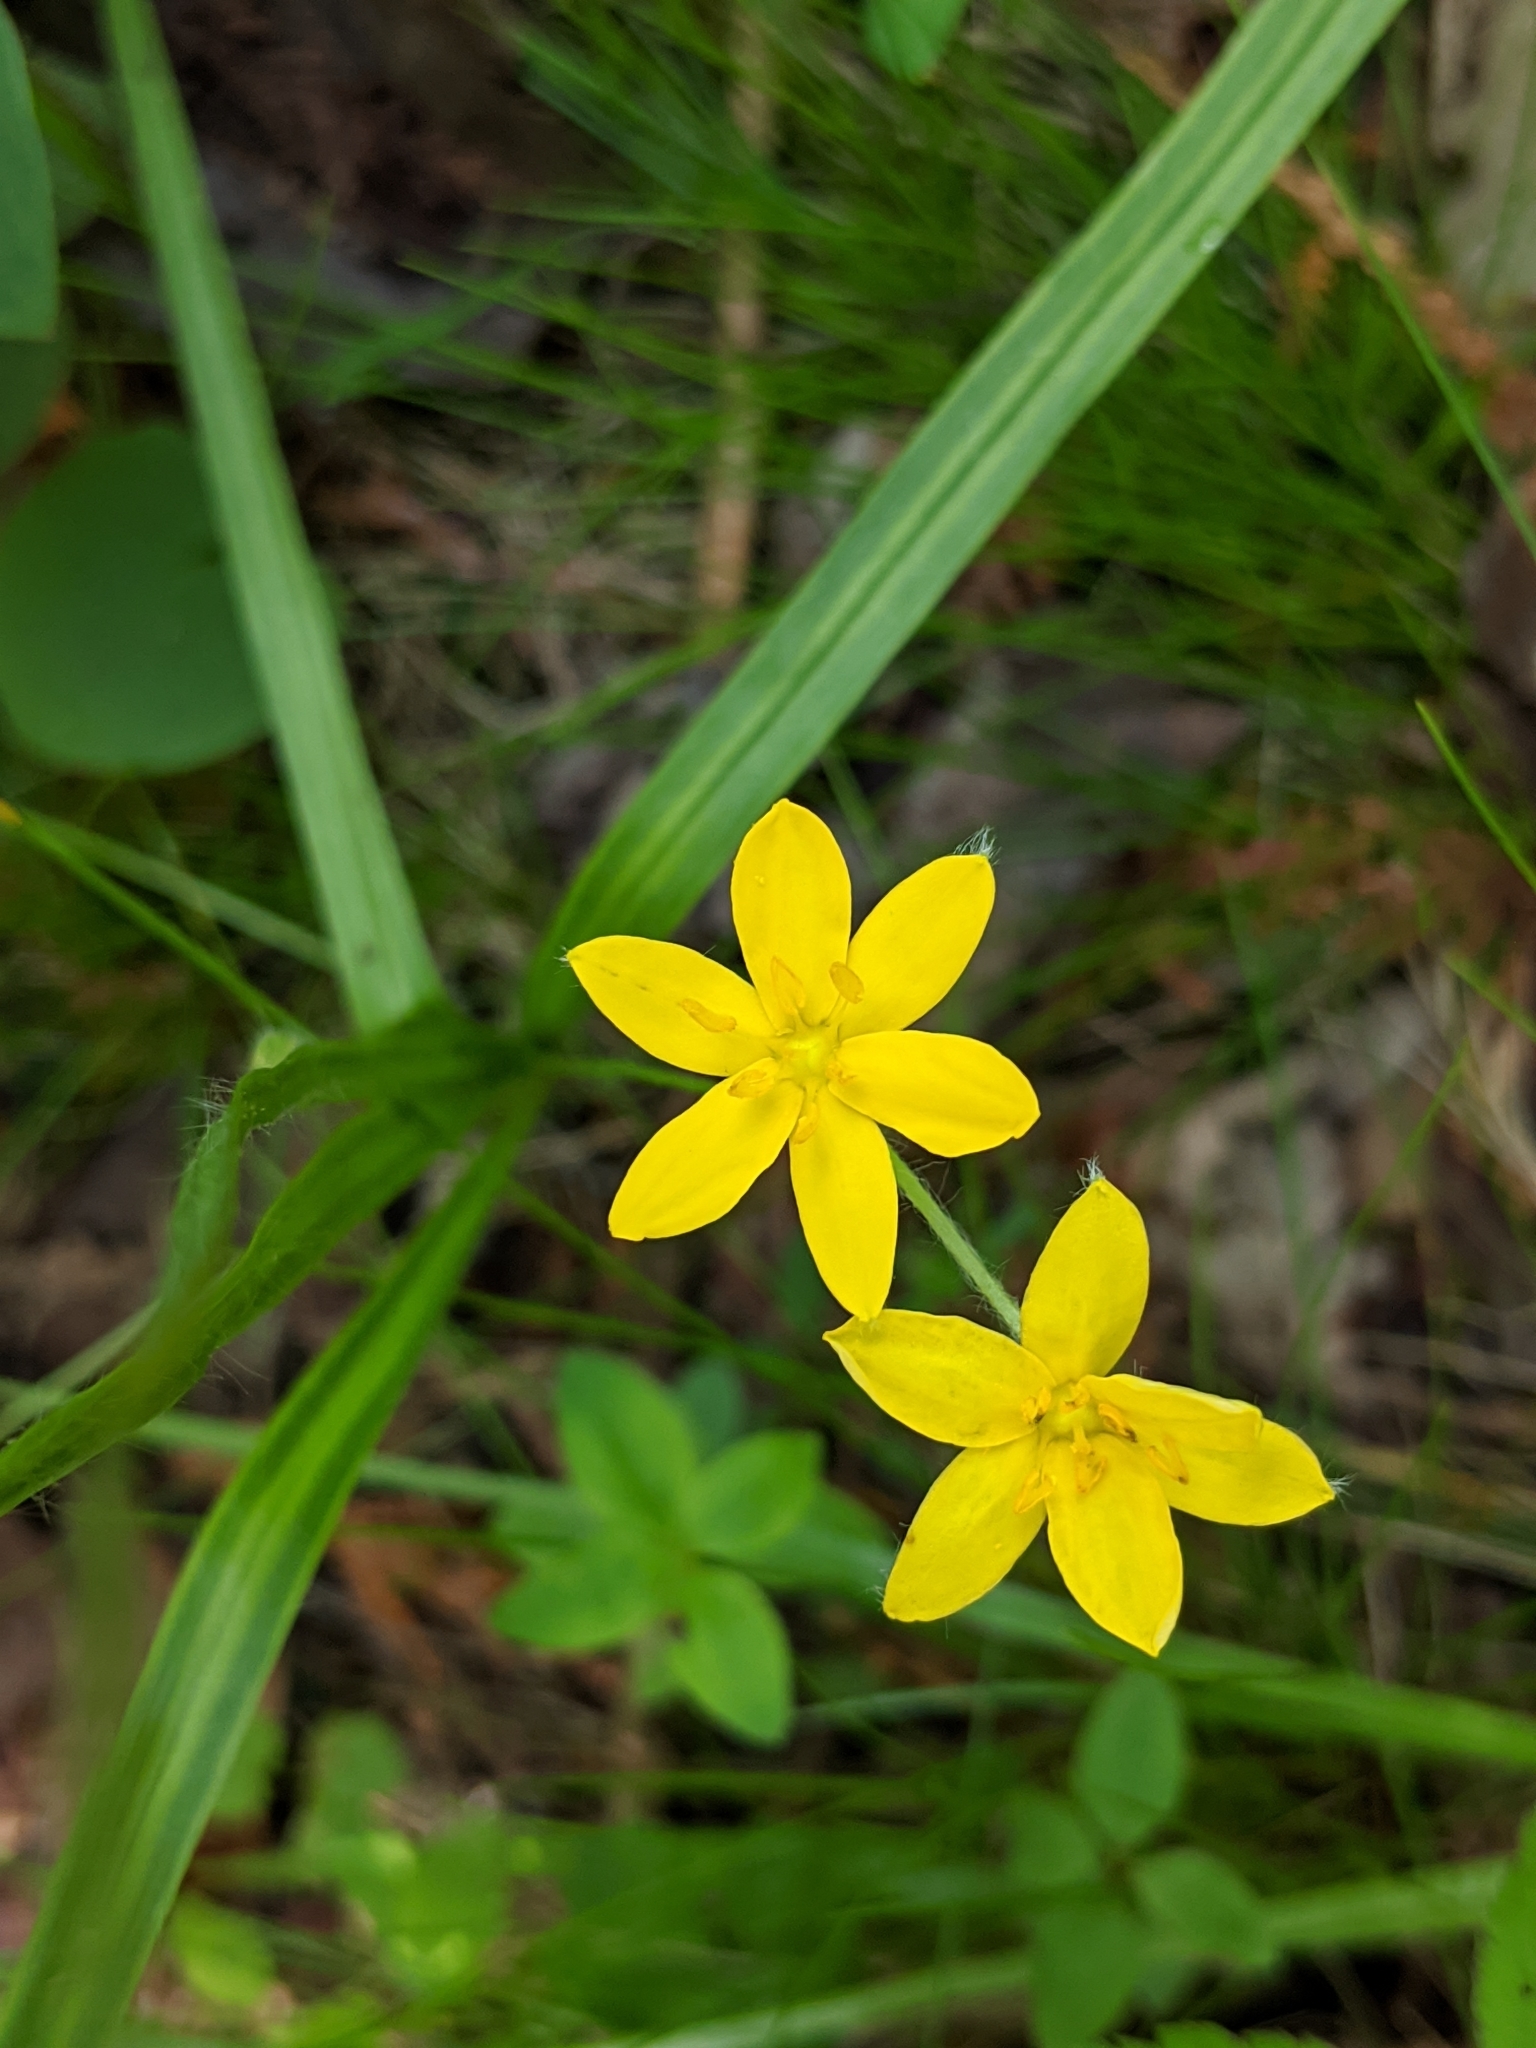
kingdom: Plantae
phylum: Tracheophyta
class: Liliopsida
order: Asparagales
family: Hypoxidaceae
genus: Hypoxis
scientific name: Hypoxis hirsuta
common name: Common goldstar
